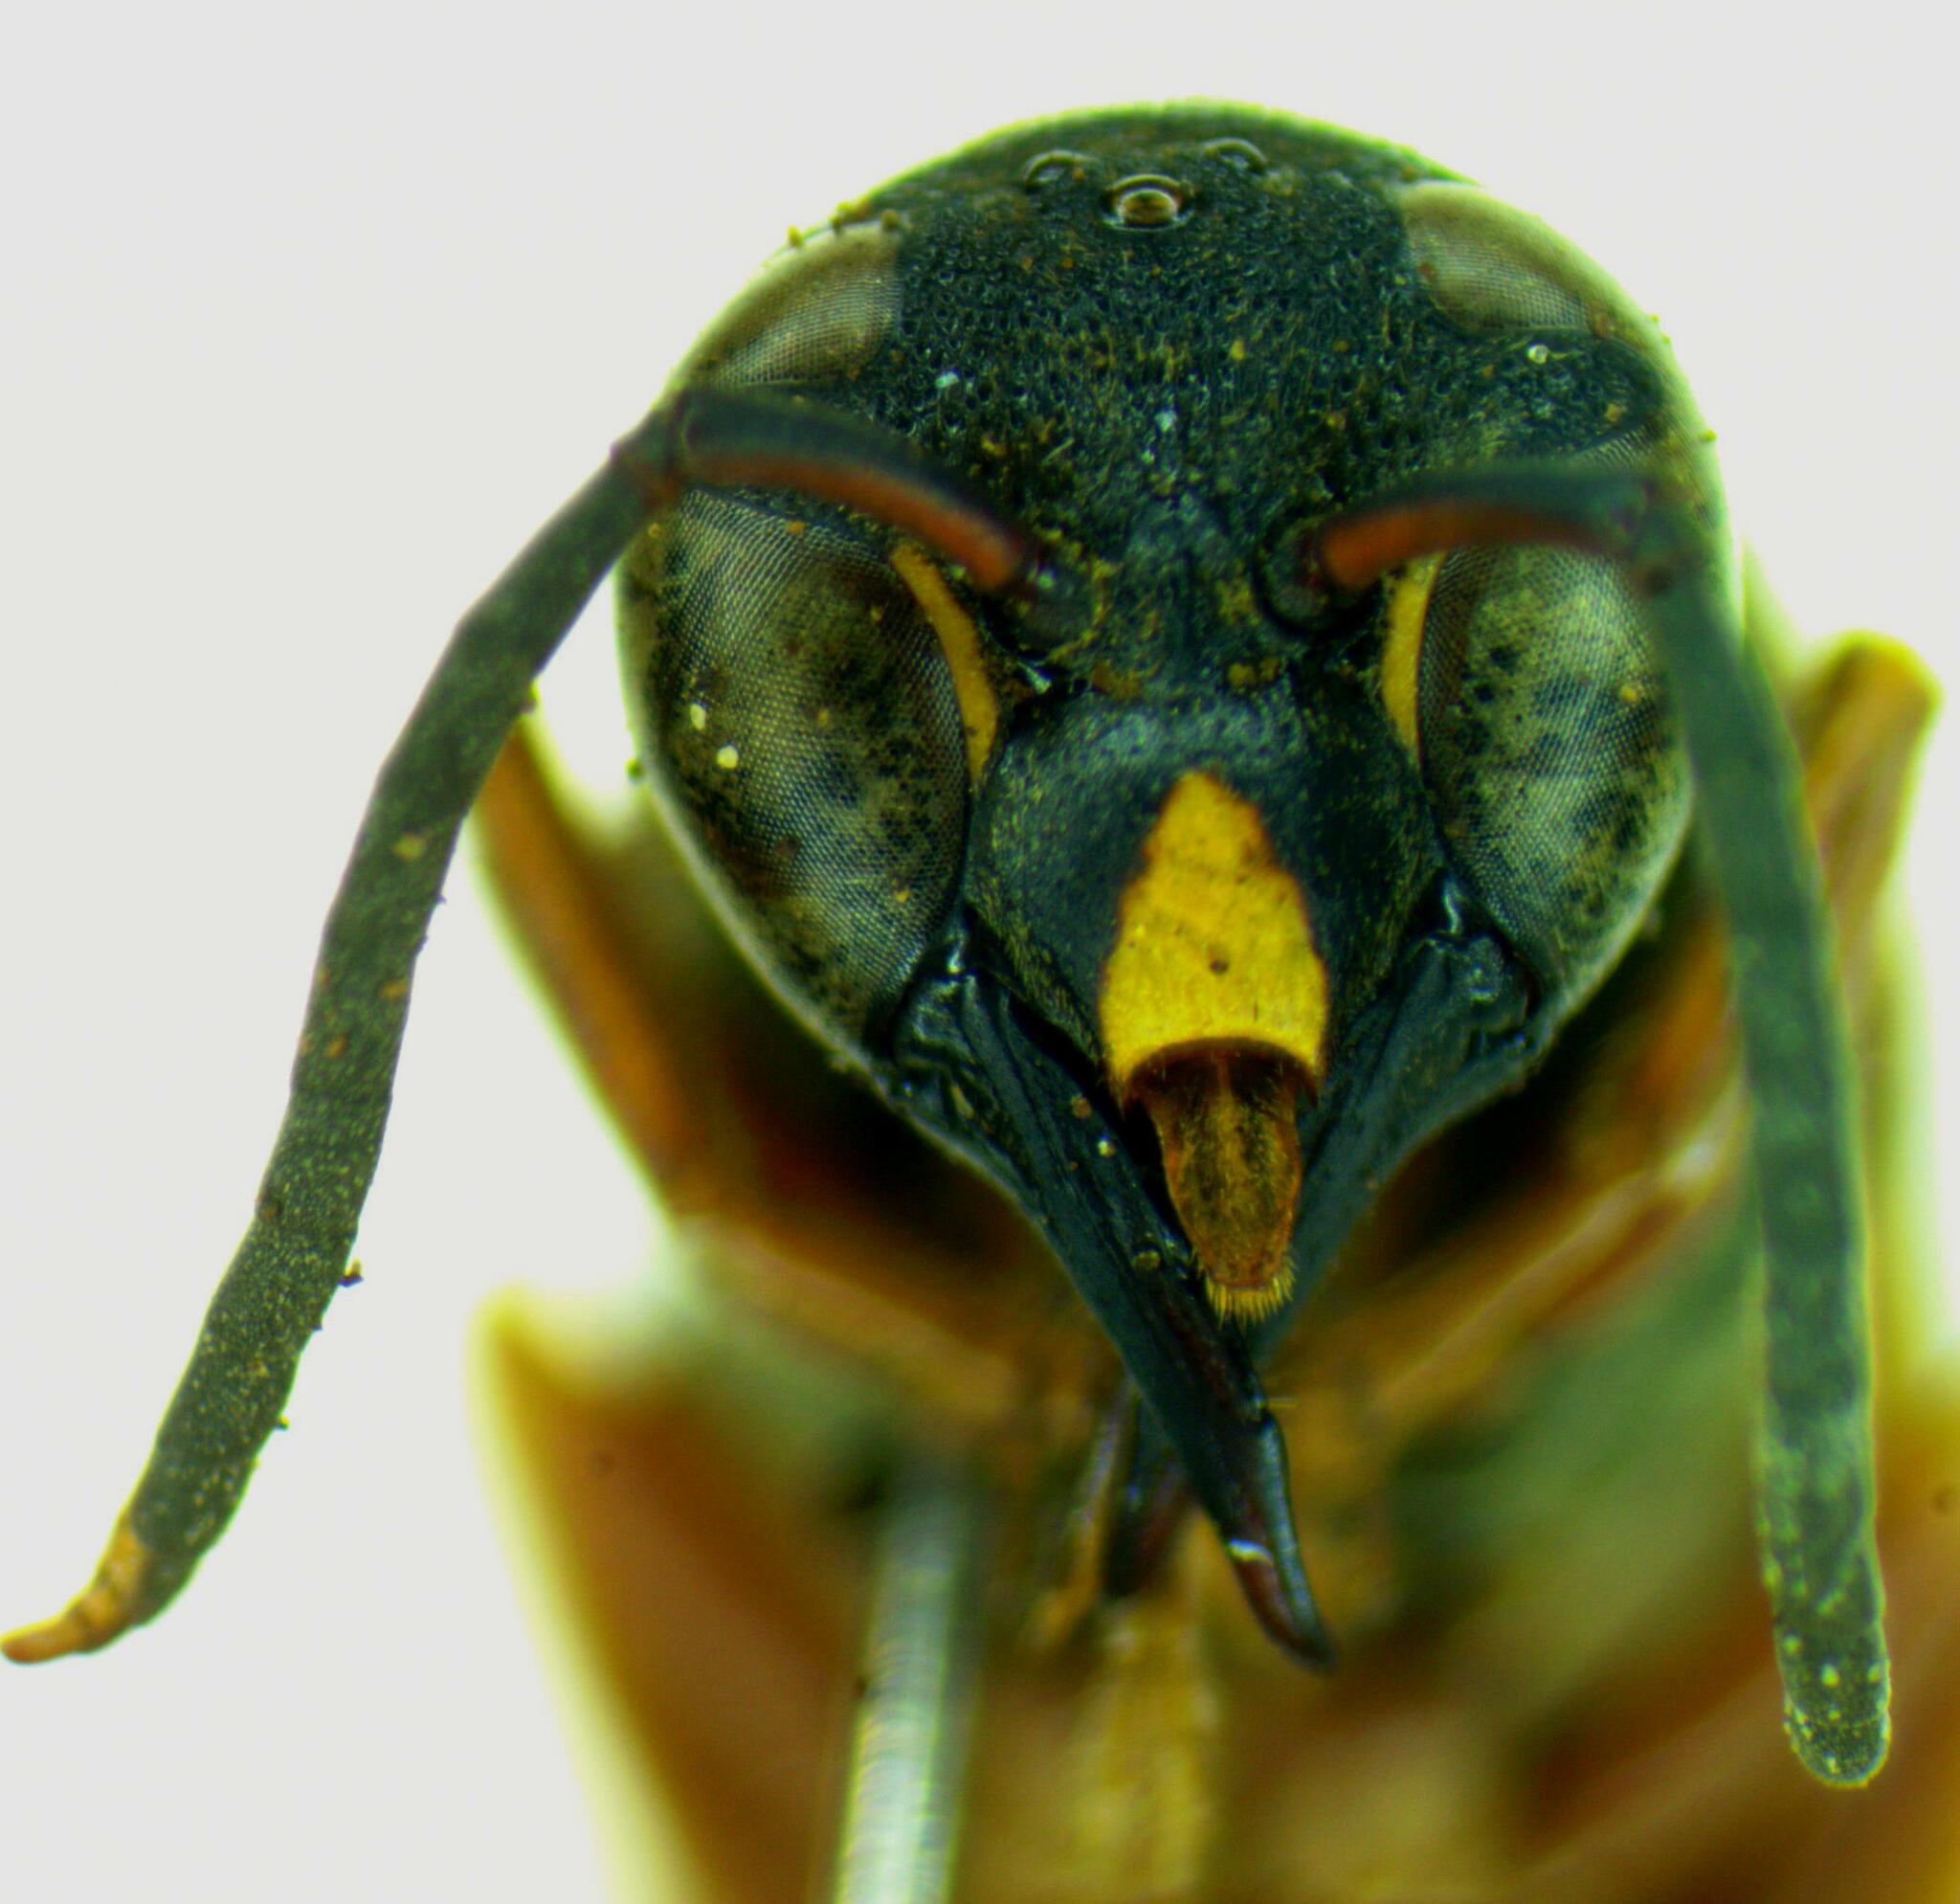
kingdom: Animalia
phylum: Arthropoda
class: Insecta
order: Hymenoptera
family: Eumenidae
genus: Montezumia
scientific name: Montezumia infernalis
